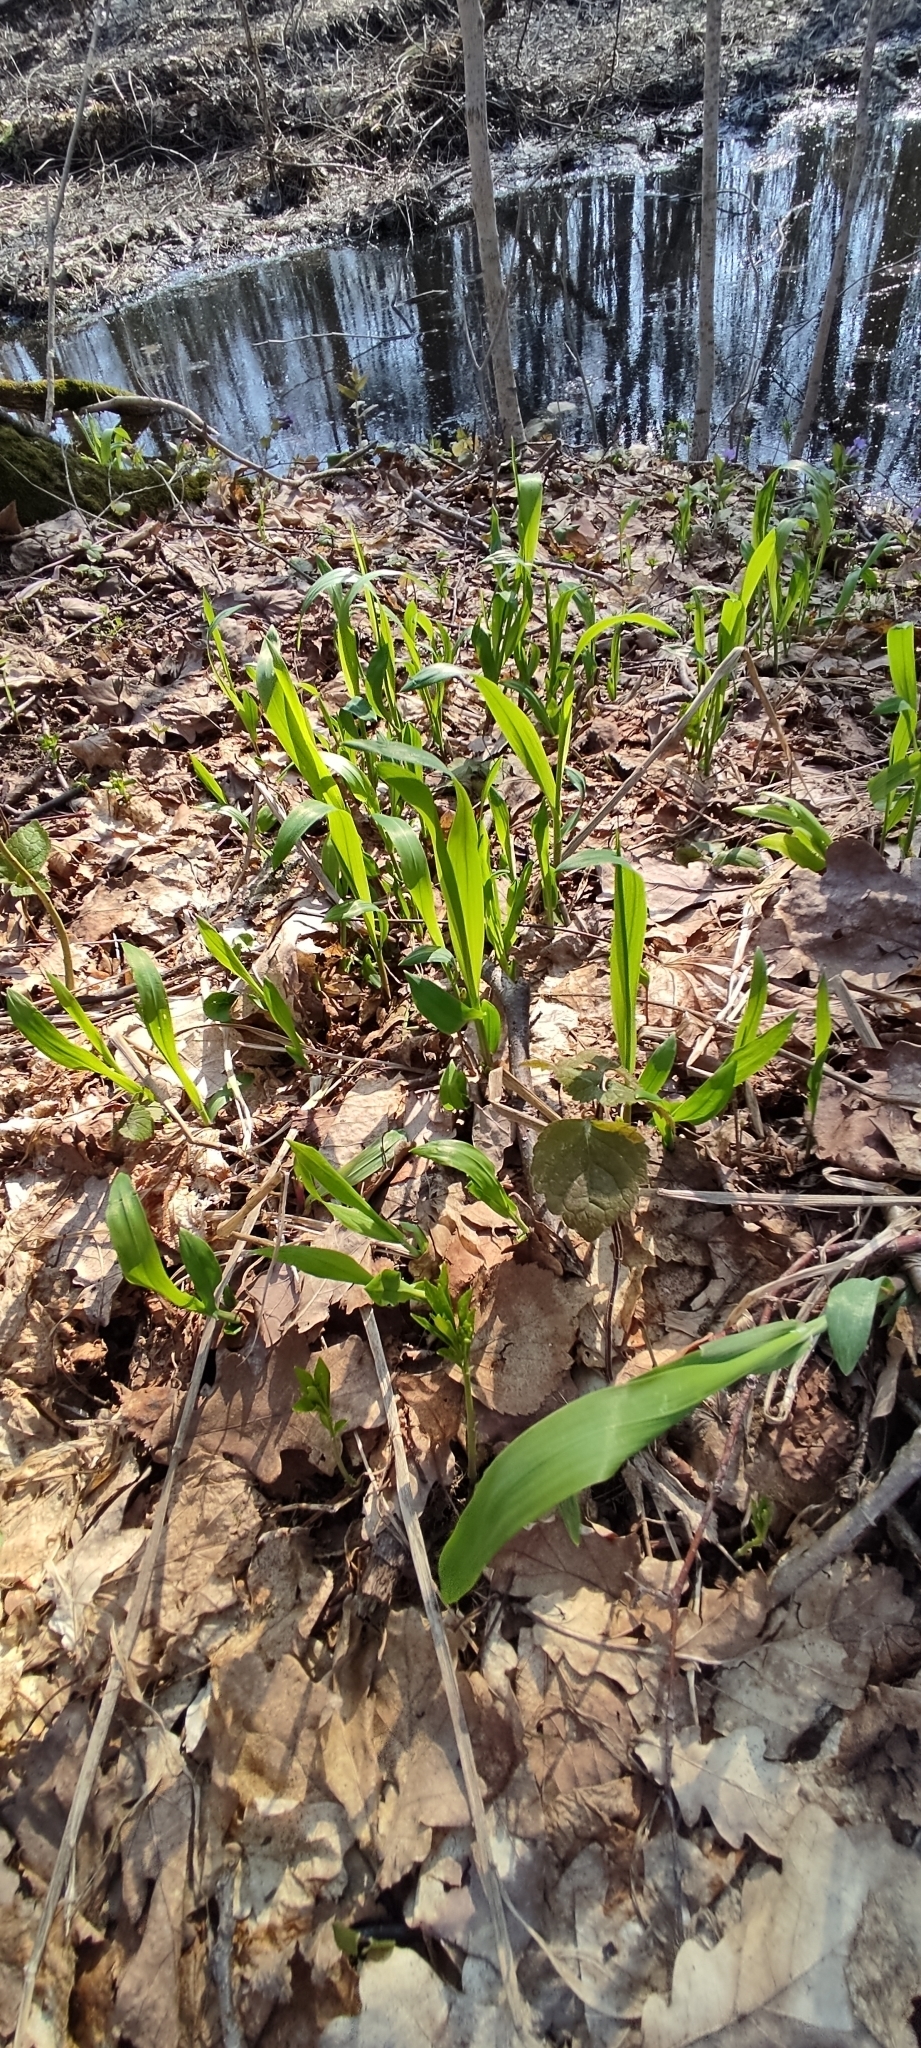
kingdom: Plantae
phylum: Tracheophyta
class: Liliopsida
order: Poales
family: Poaceae
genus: Milium
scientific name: Milium effusum
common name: Wood millet
